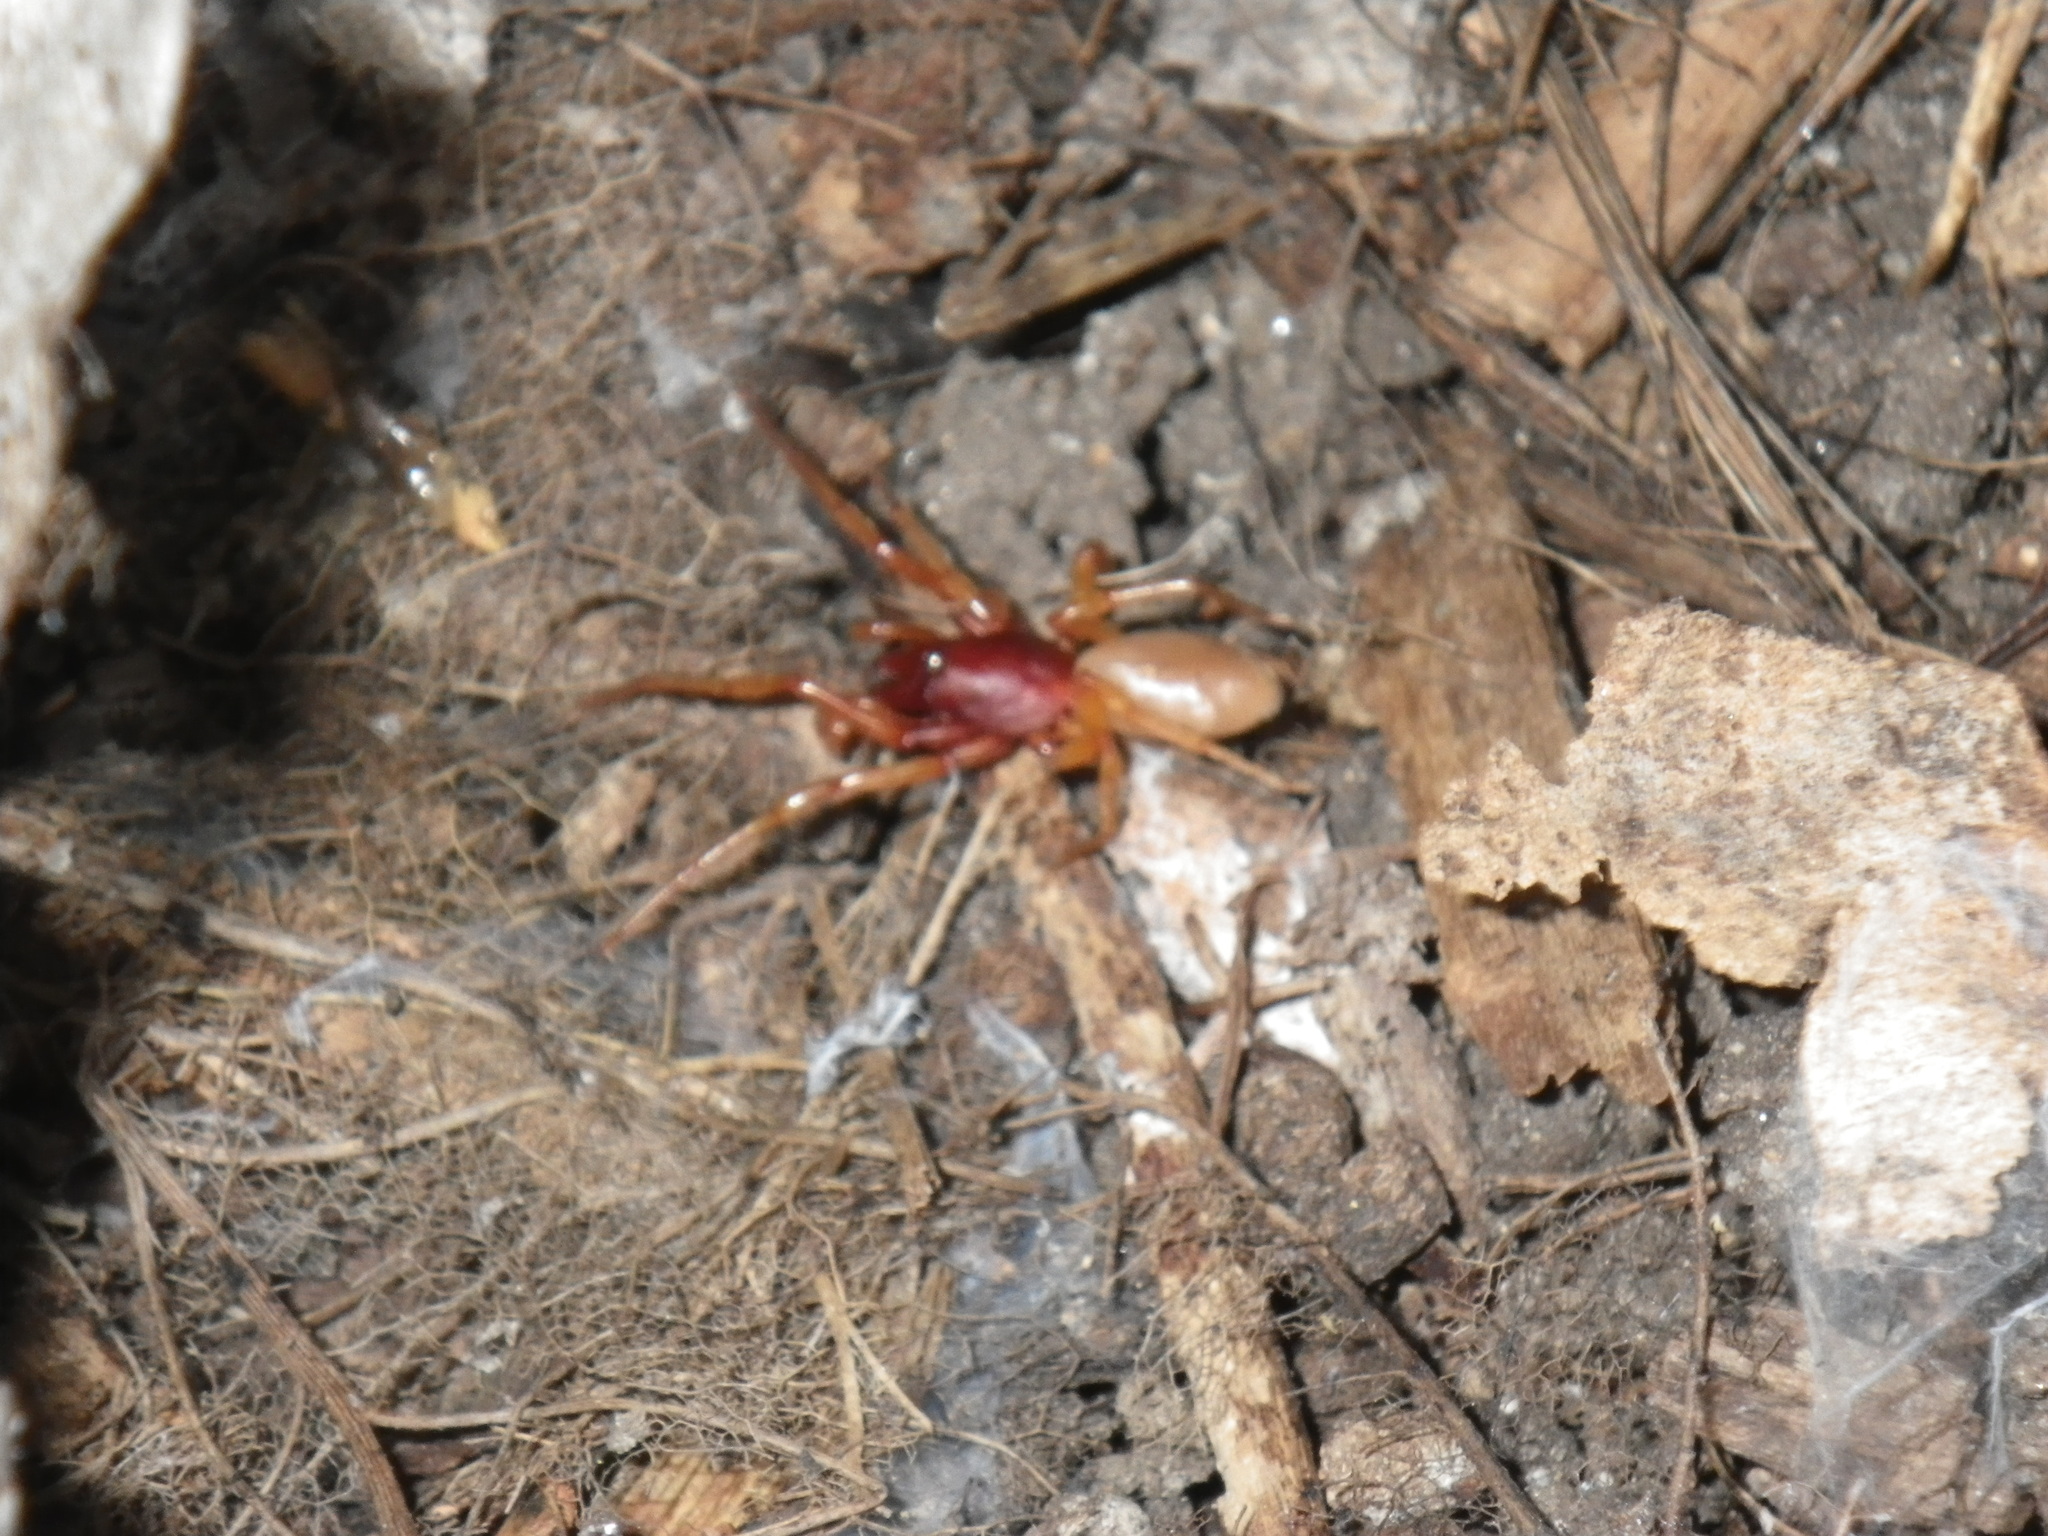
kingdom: Animalia
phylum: Arthropoda
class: Arachnida
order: Araneae
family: Dysderidae
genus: Dysdera
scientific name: Dysdera crocata
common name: Woodlouse spider
